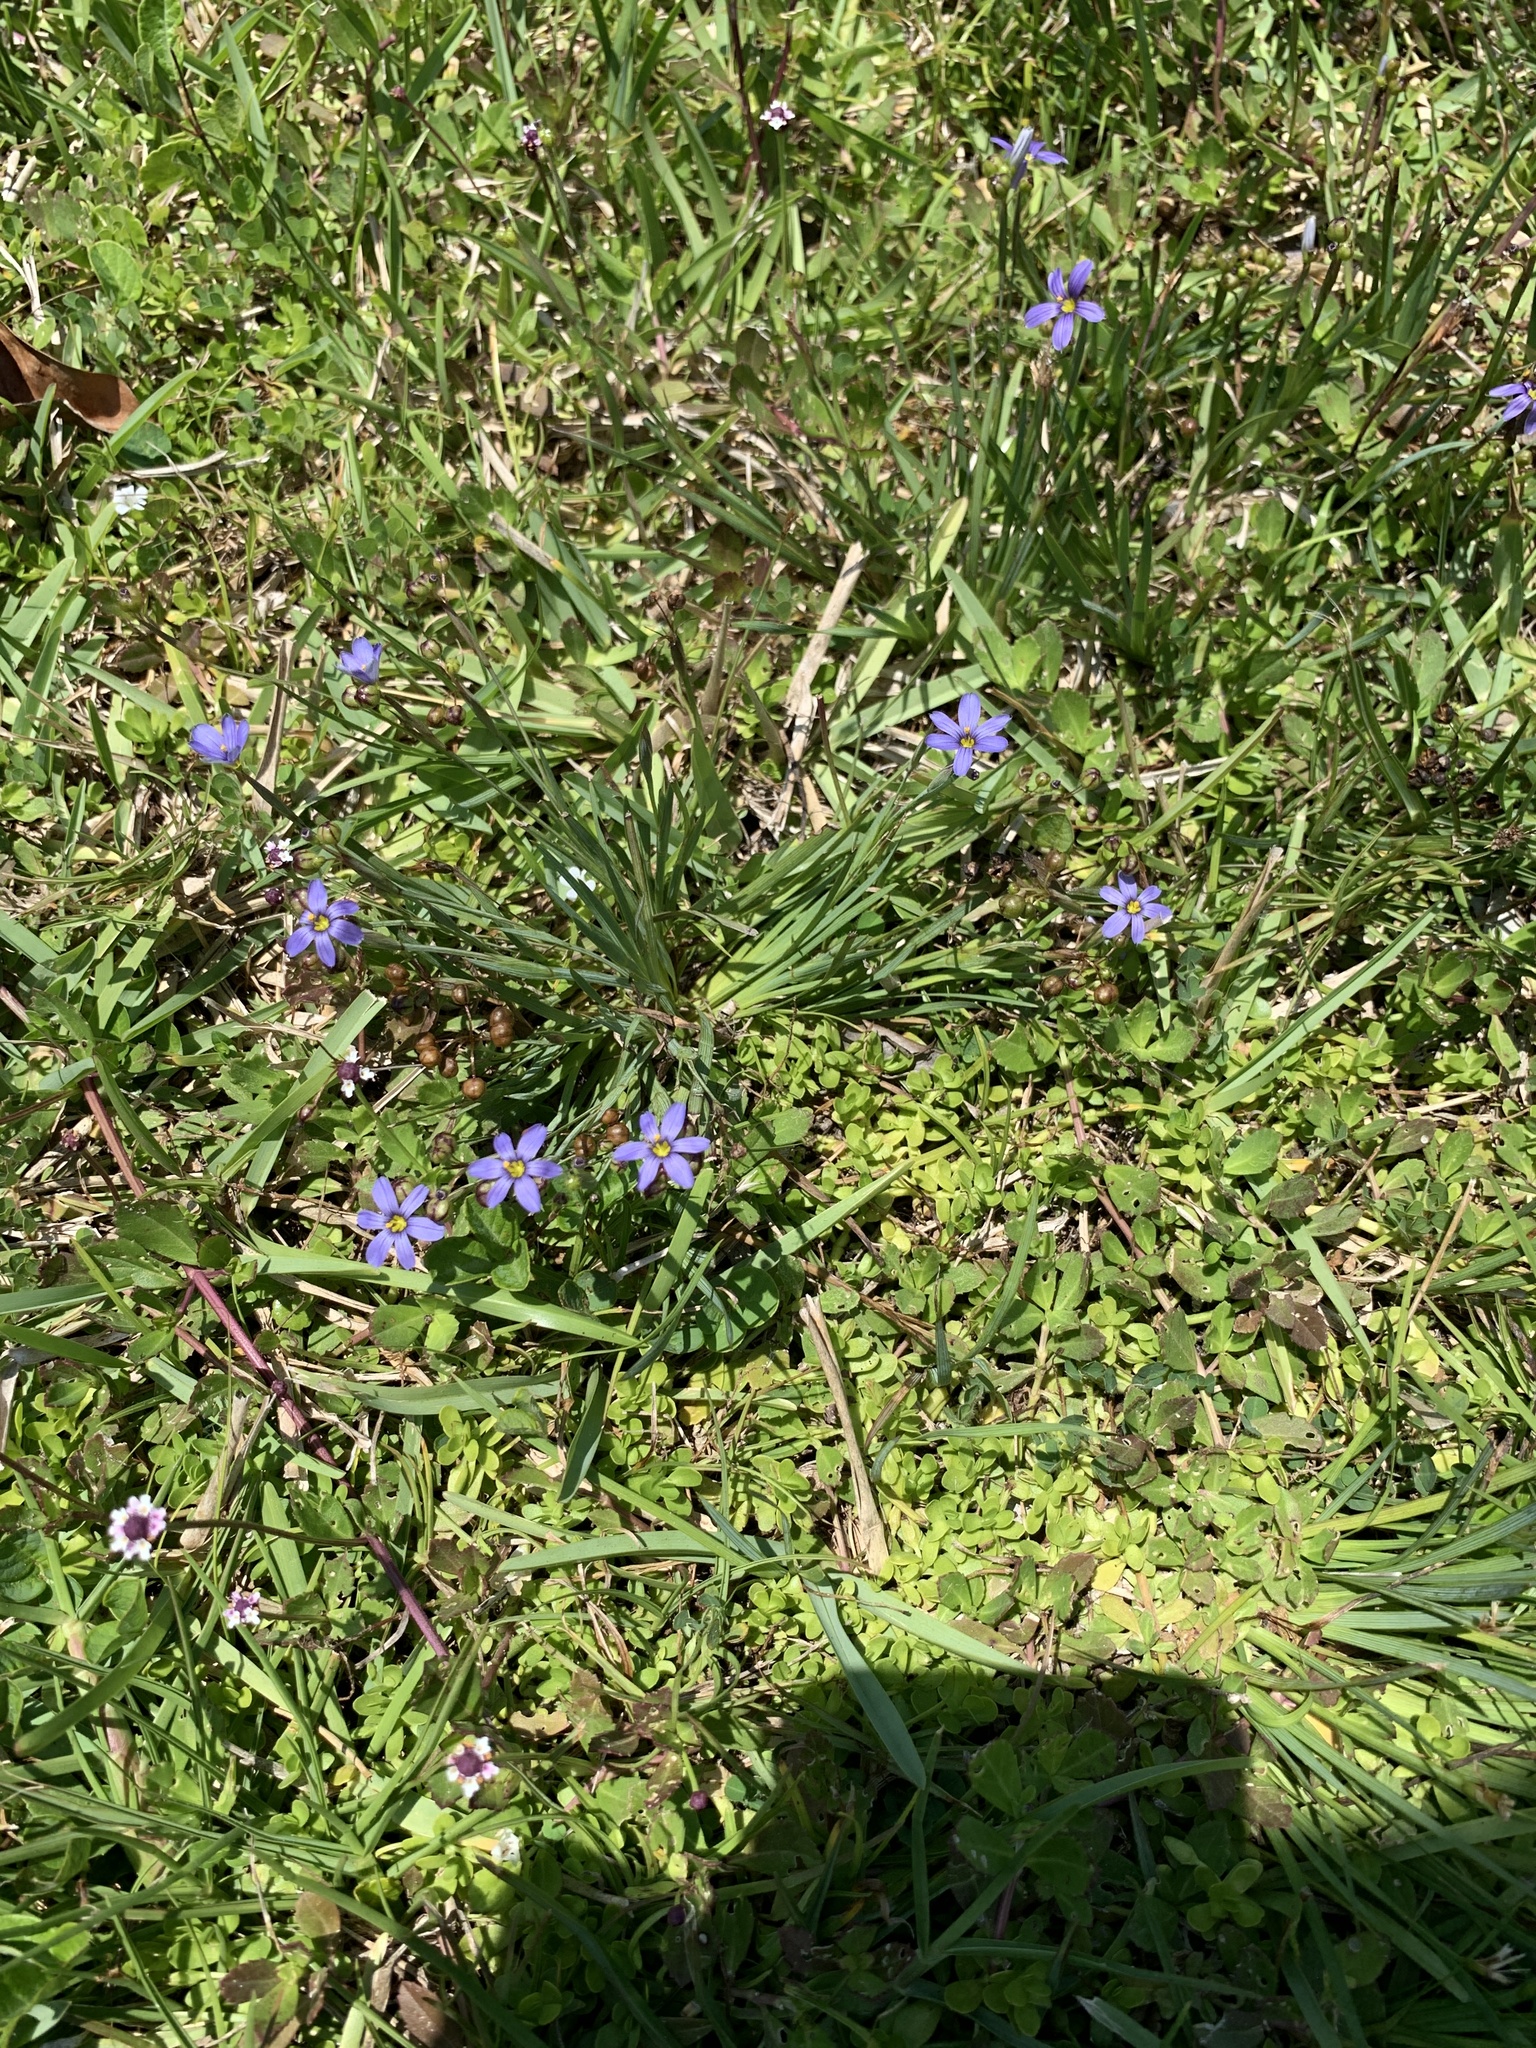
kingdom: Plantae
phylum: Tracheophyta
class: Liliopsida
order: Asparagales
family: Iridaceae
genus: Sisyrinchium
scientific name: Sisyrinchium angustifolium
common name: Narrow-leaf blue-eyed-grass
